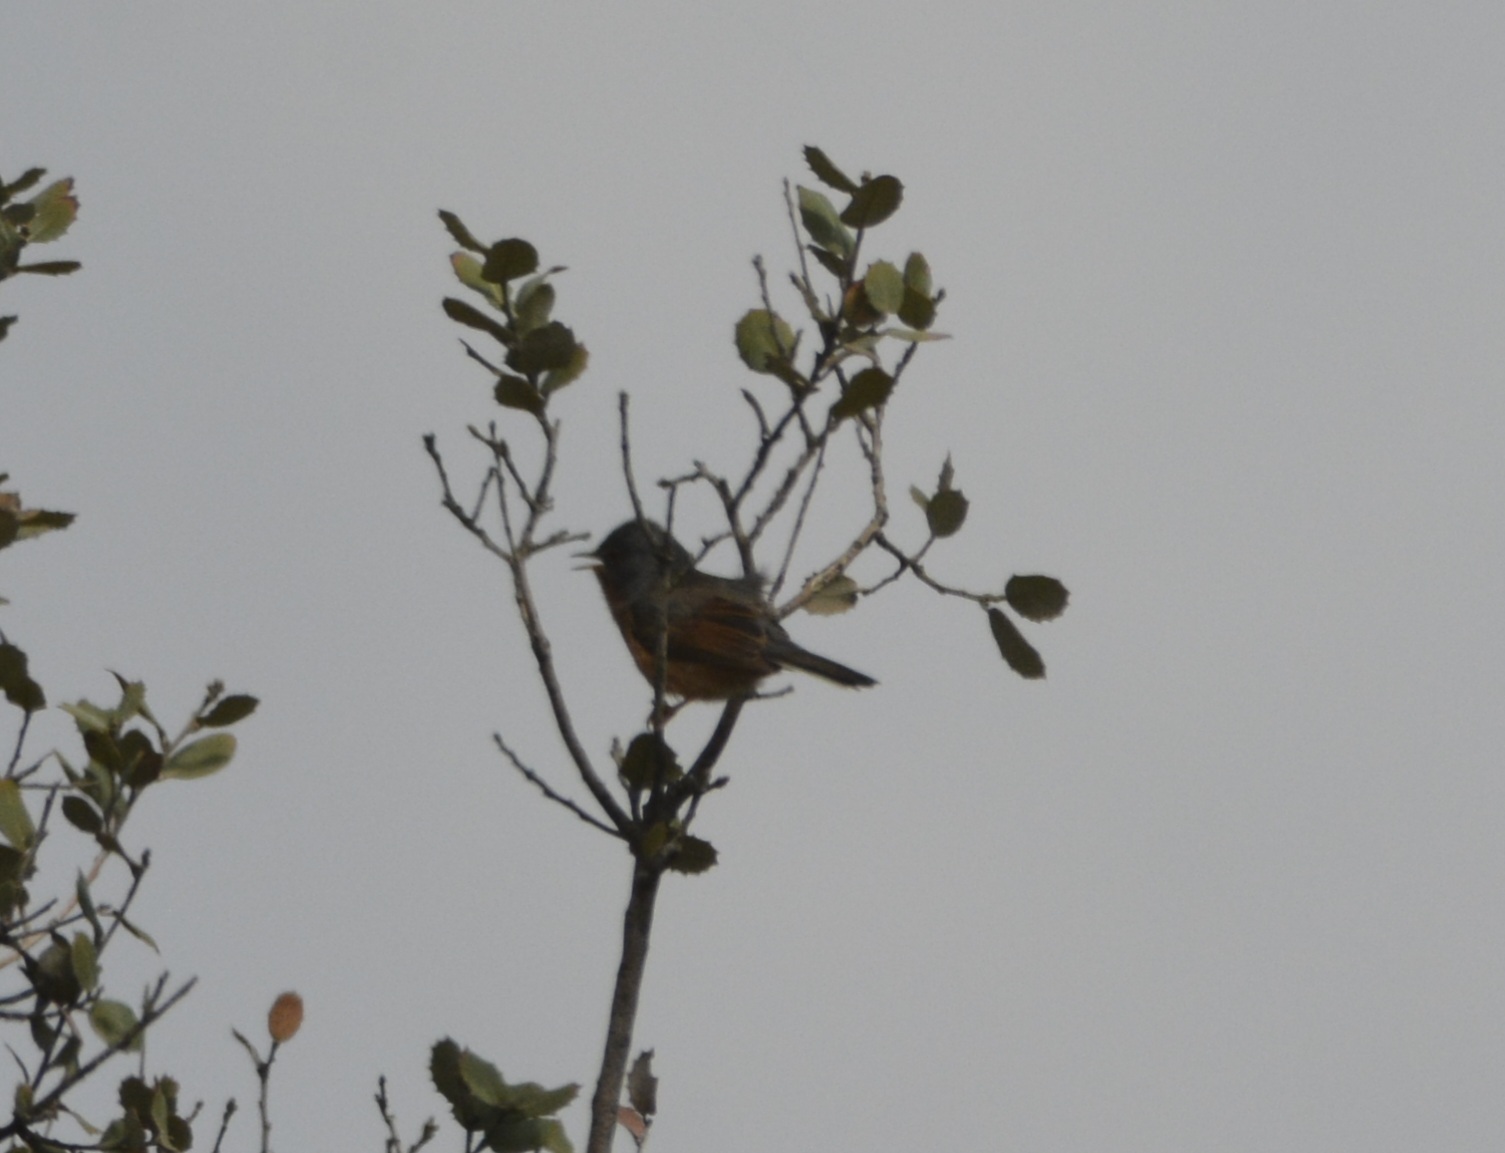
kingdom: Animalia
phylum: Chordata
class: Aves
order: Passeriformes
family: Sylviidae
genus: Sylvia
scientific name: Sylvia deserticola
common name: Tristram's warbler
